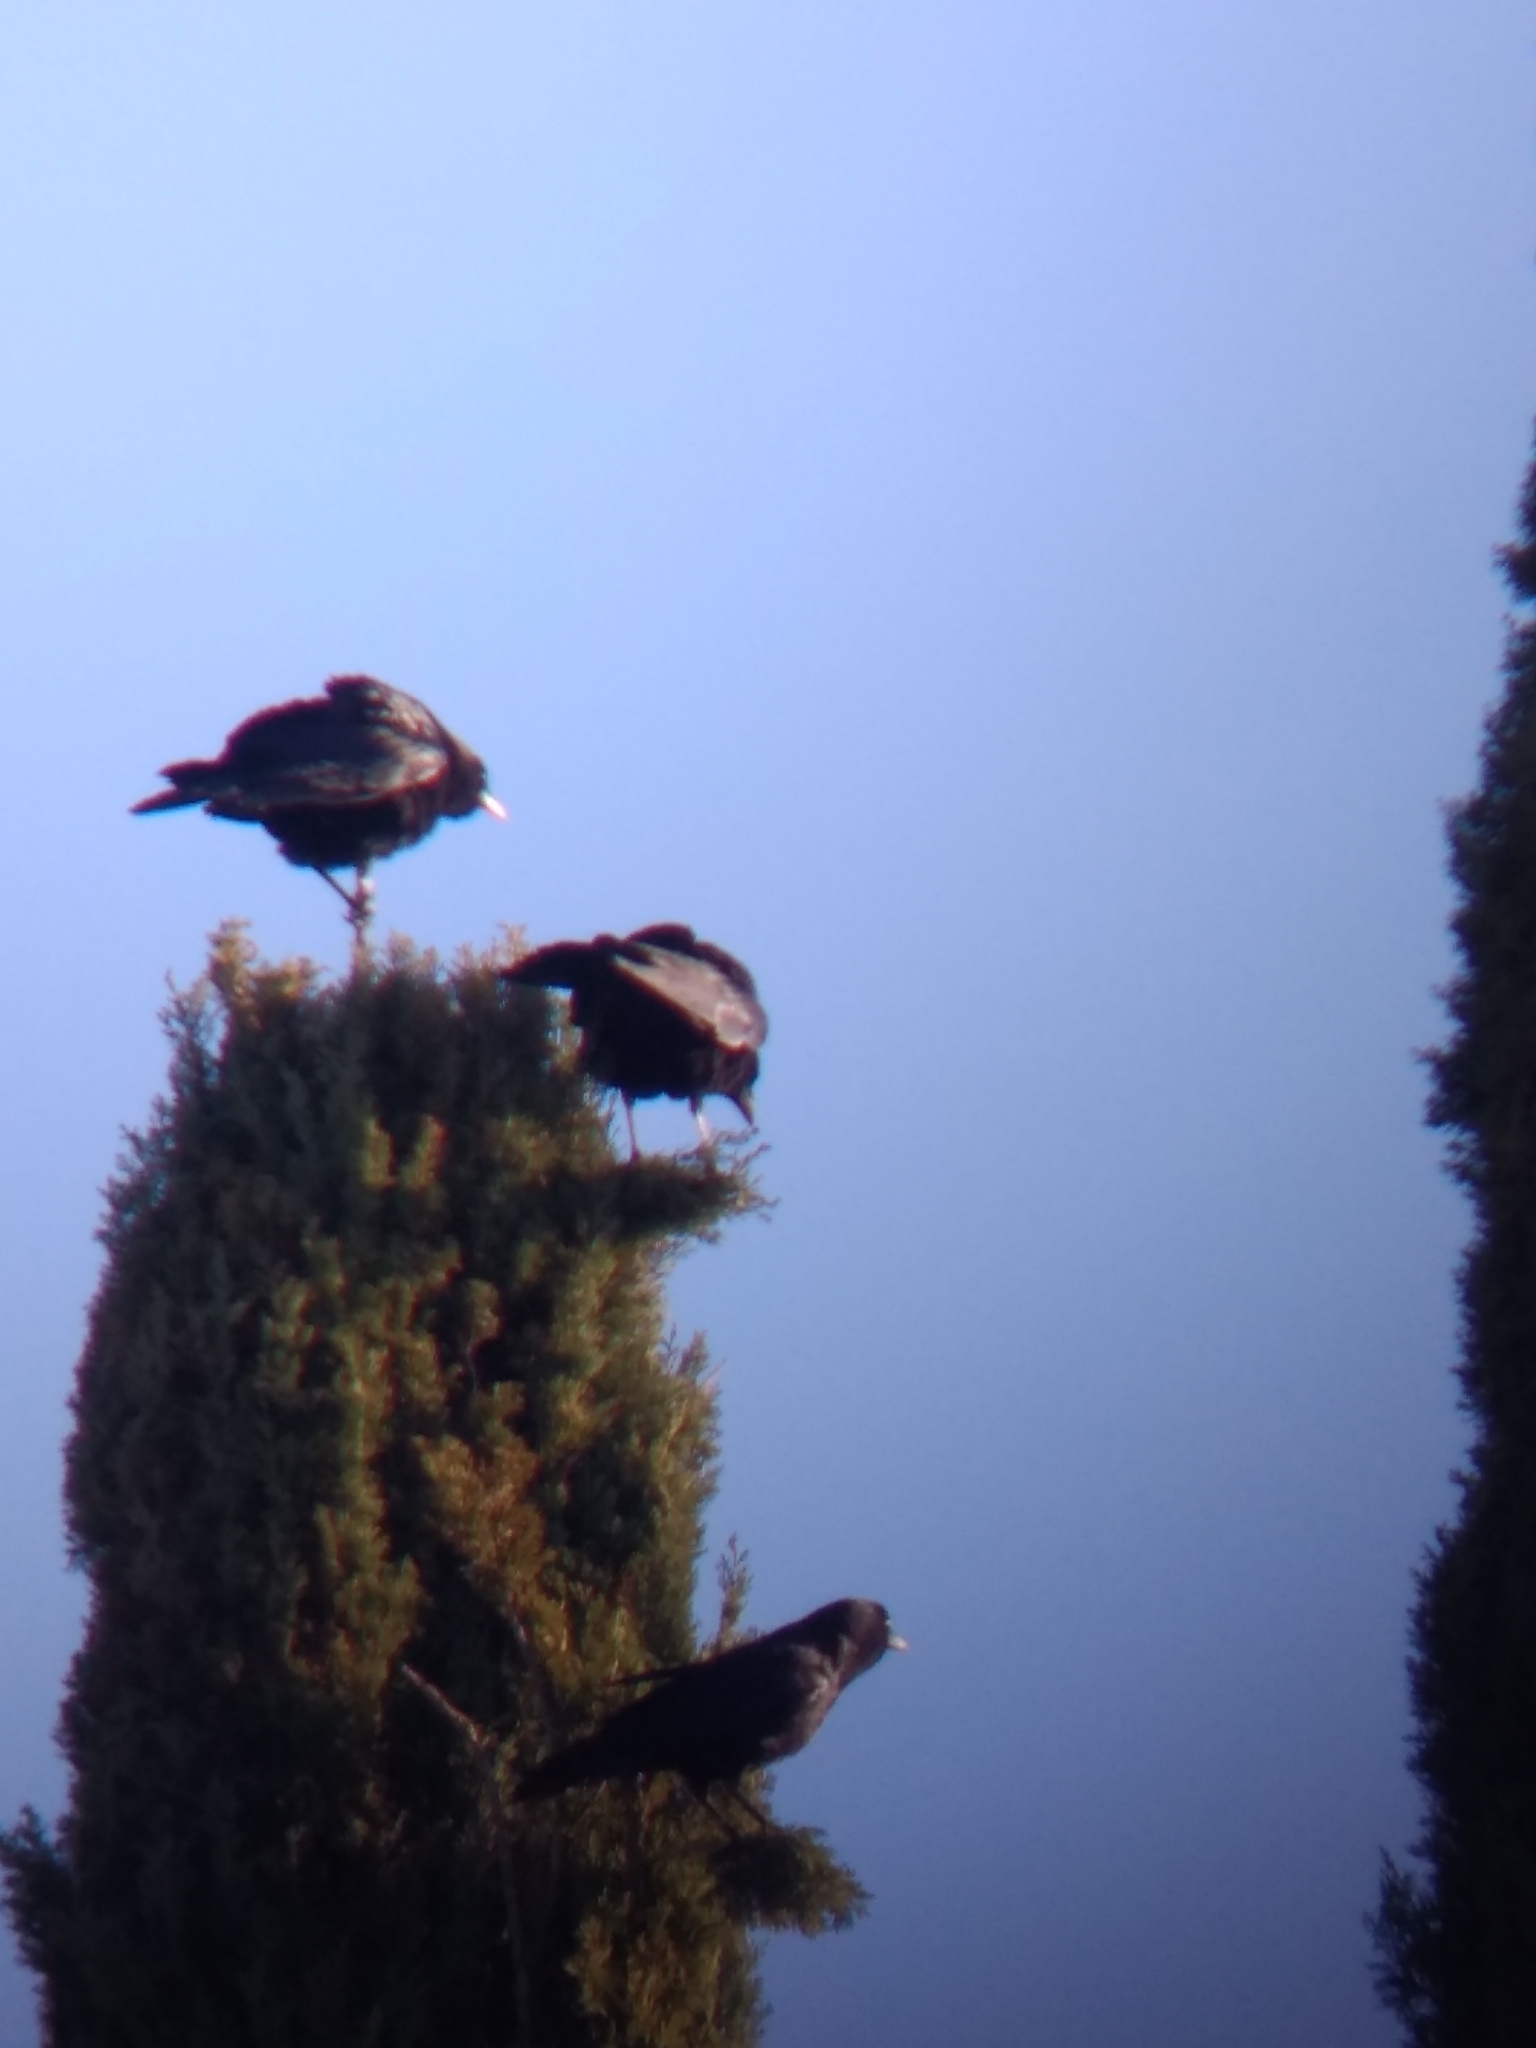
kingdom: Animalia
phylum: Chordata
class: Aves
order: Passeriformes
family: Corvidae
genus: Corvus
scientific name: Corvus brachyrhynchos
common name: American crow
